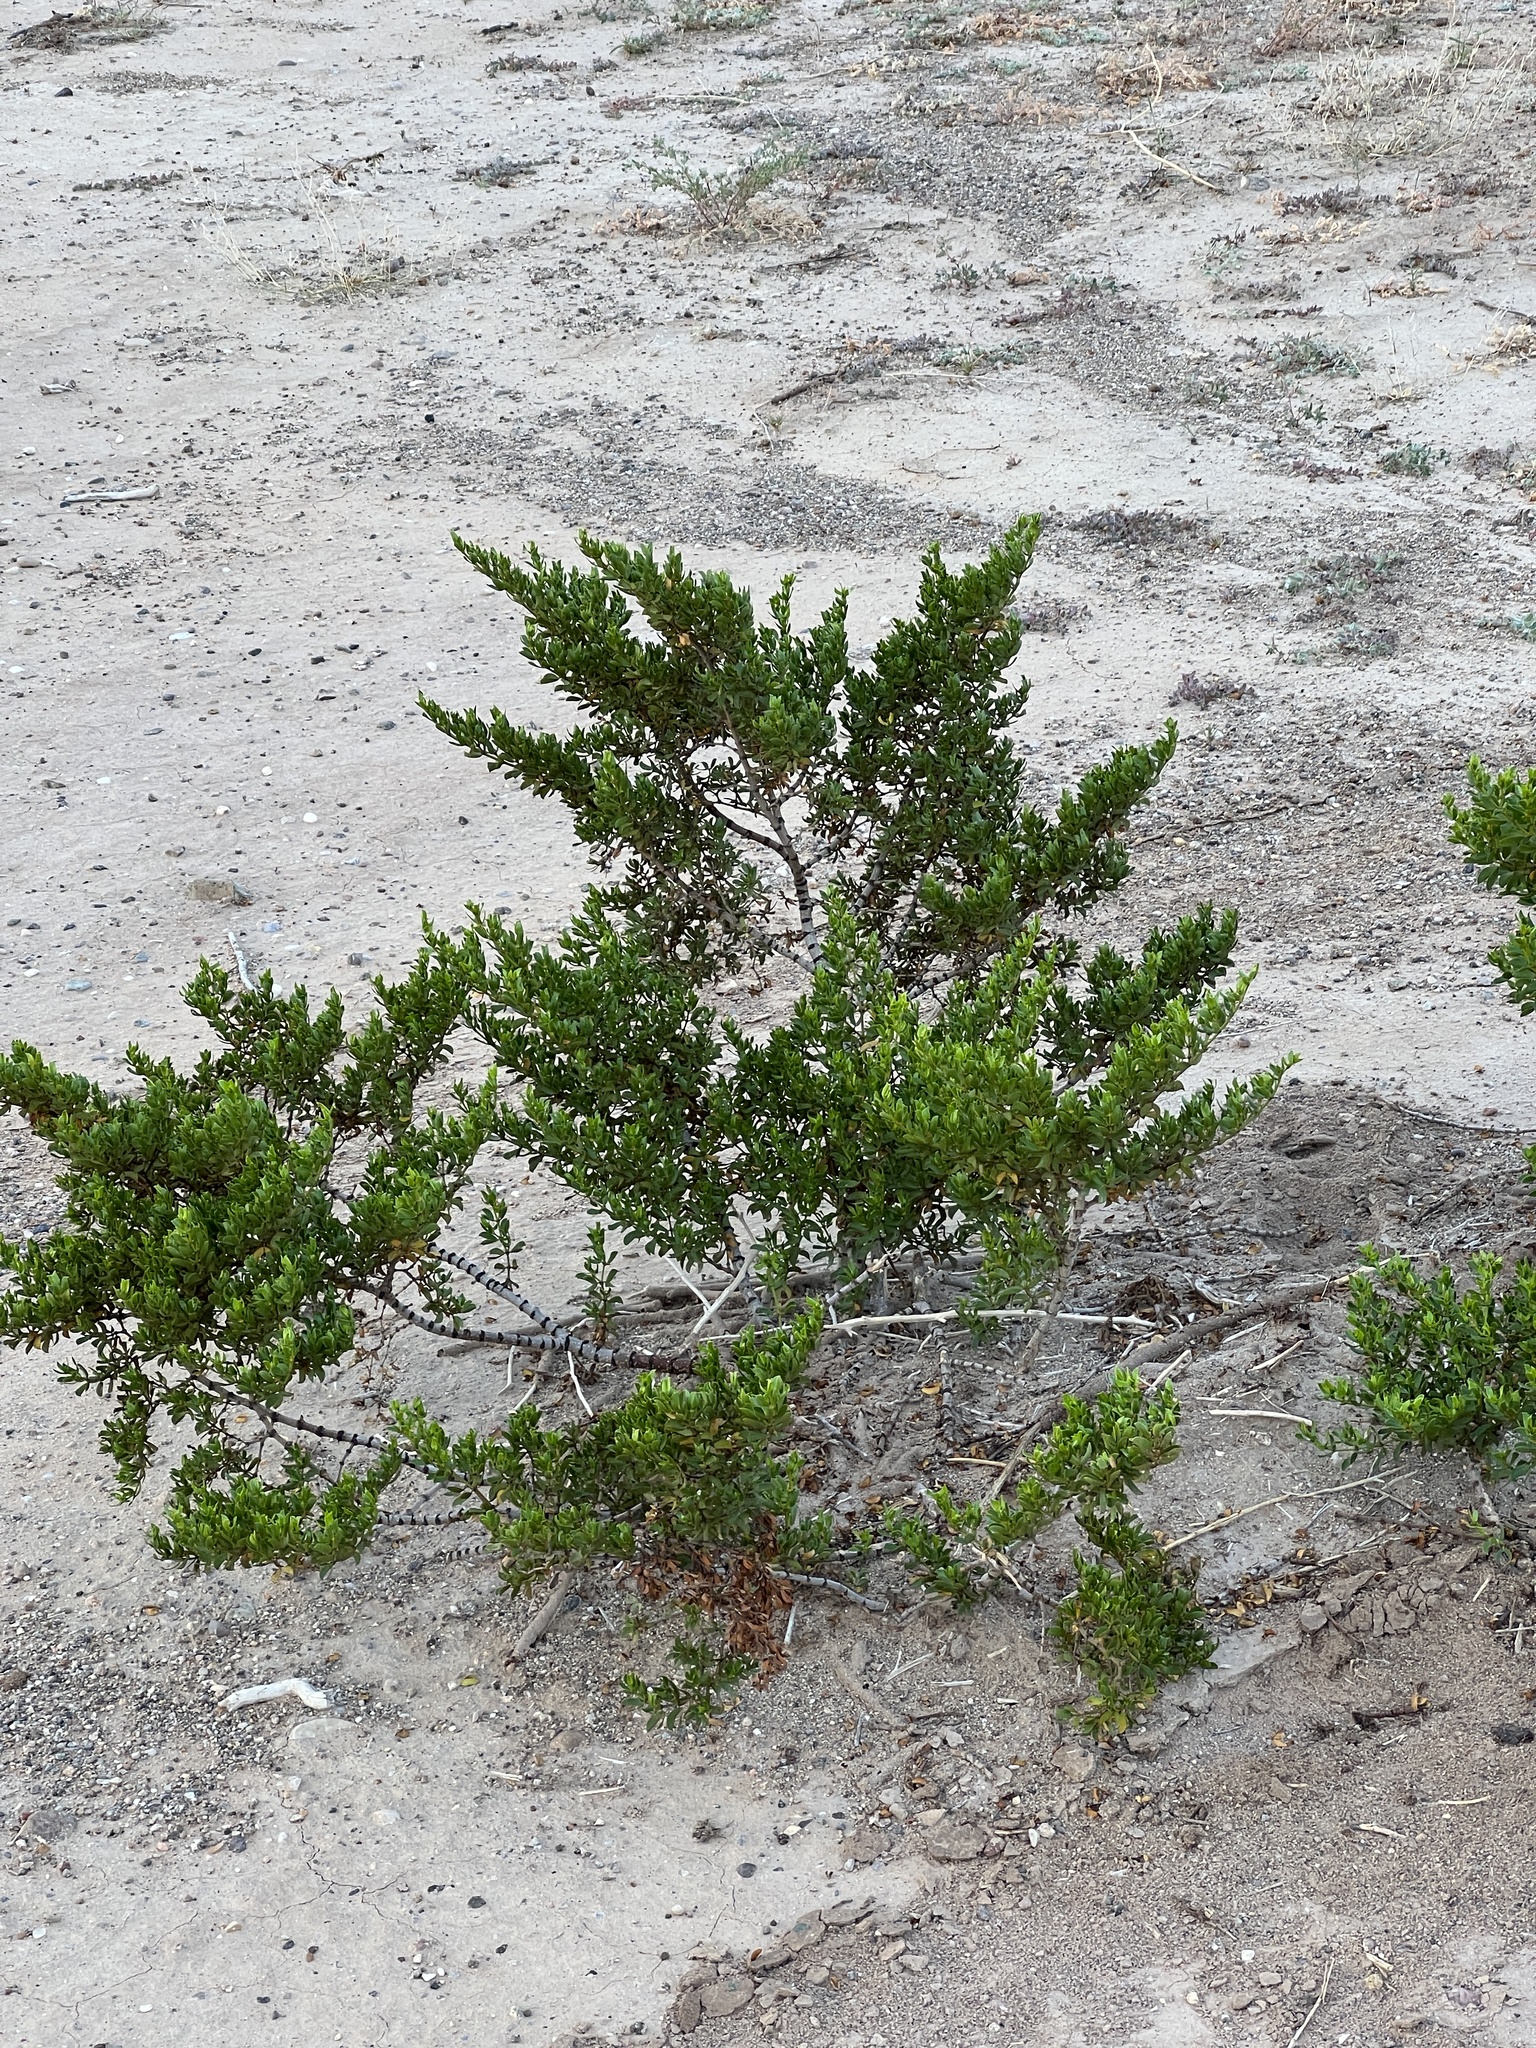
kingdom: Plantae
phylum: Tracheophyta
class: Magnoliopsida
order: Zygophyllales
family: Zygophyllaceae
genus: Larrea
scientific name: Larrea tridentata
